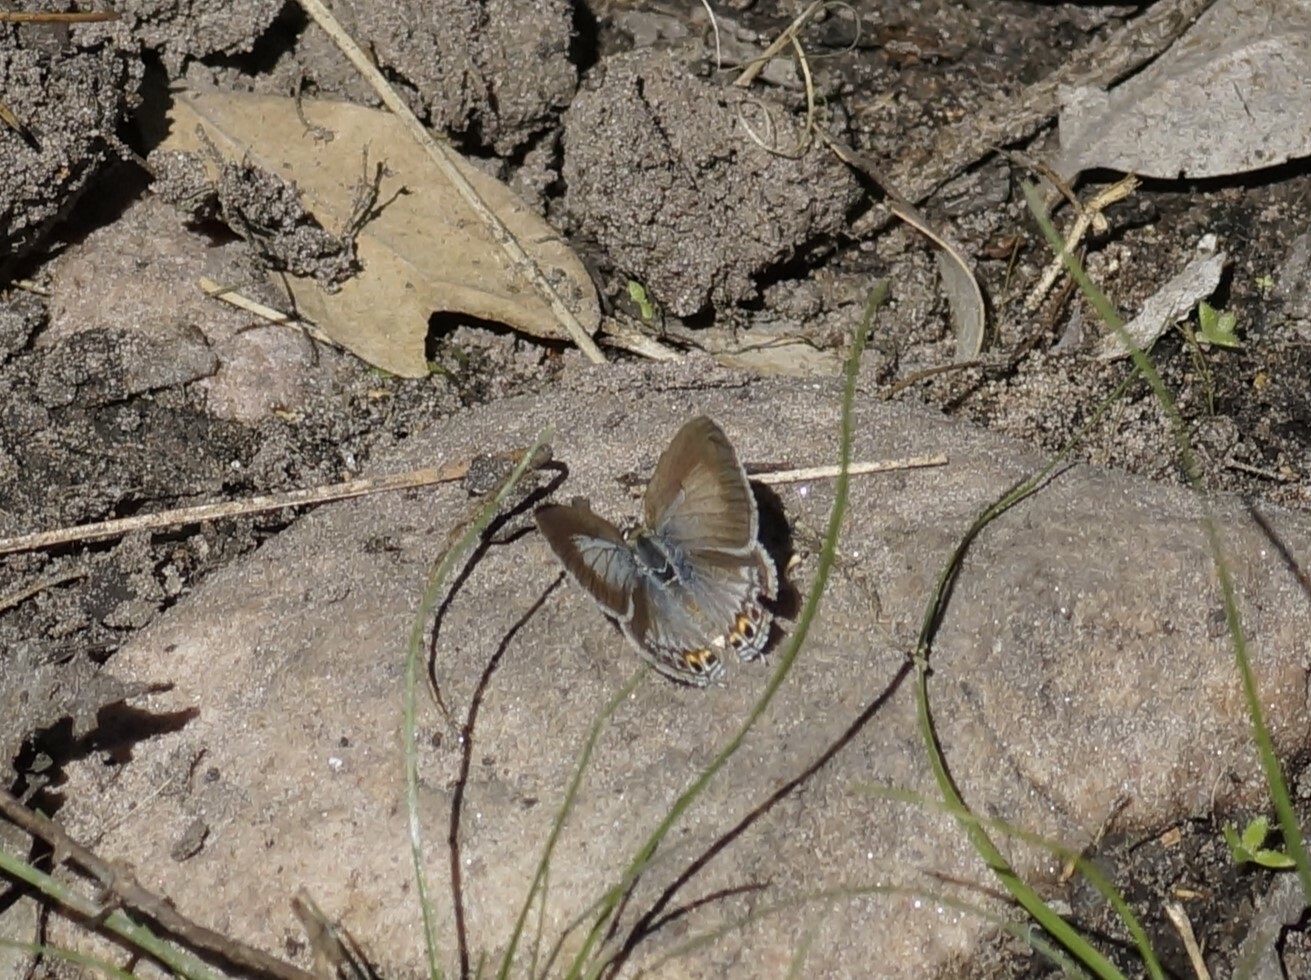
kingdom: Animalia
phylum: Arthropoda
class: Insecta
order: Lepidoptera
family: Lycaenidae
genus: Catopyrops
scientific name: Catopyrops florinda
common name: Speckled line-blue
